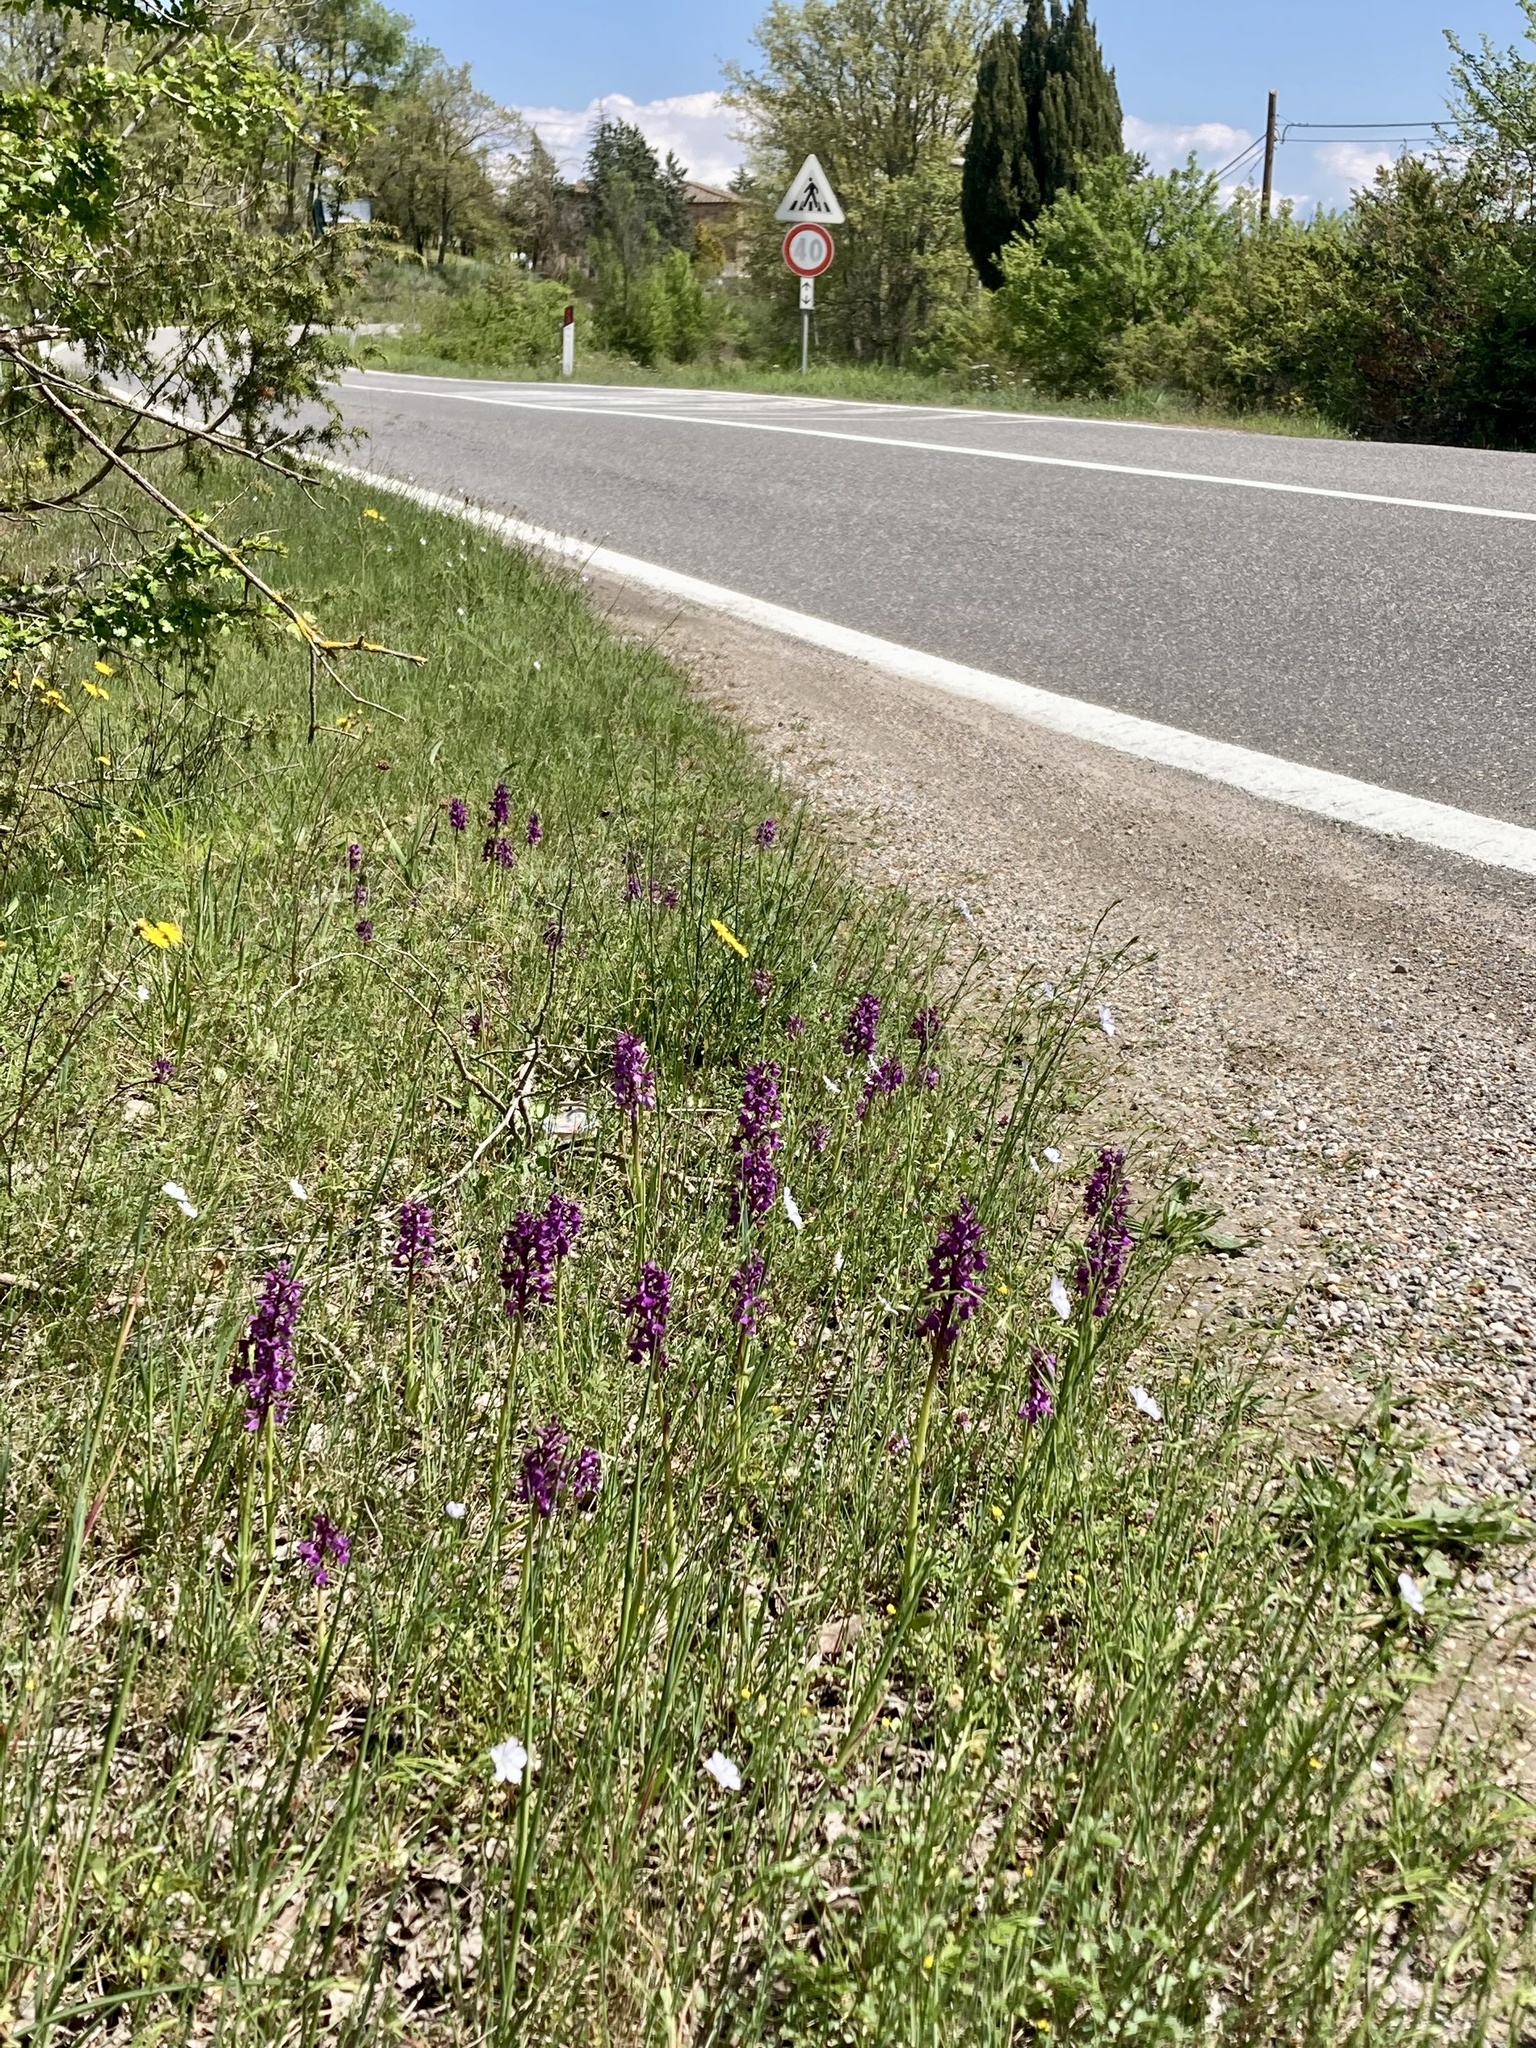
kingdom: Plantae
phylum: Tracheophyta
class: Liliopsida
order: Asparagales
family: Orchidaceae
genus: Anacamptis
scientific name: Anacamptis morio
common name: Green-winged orchid
